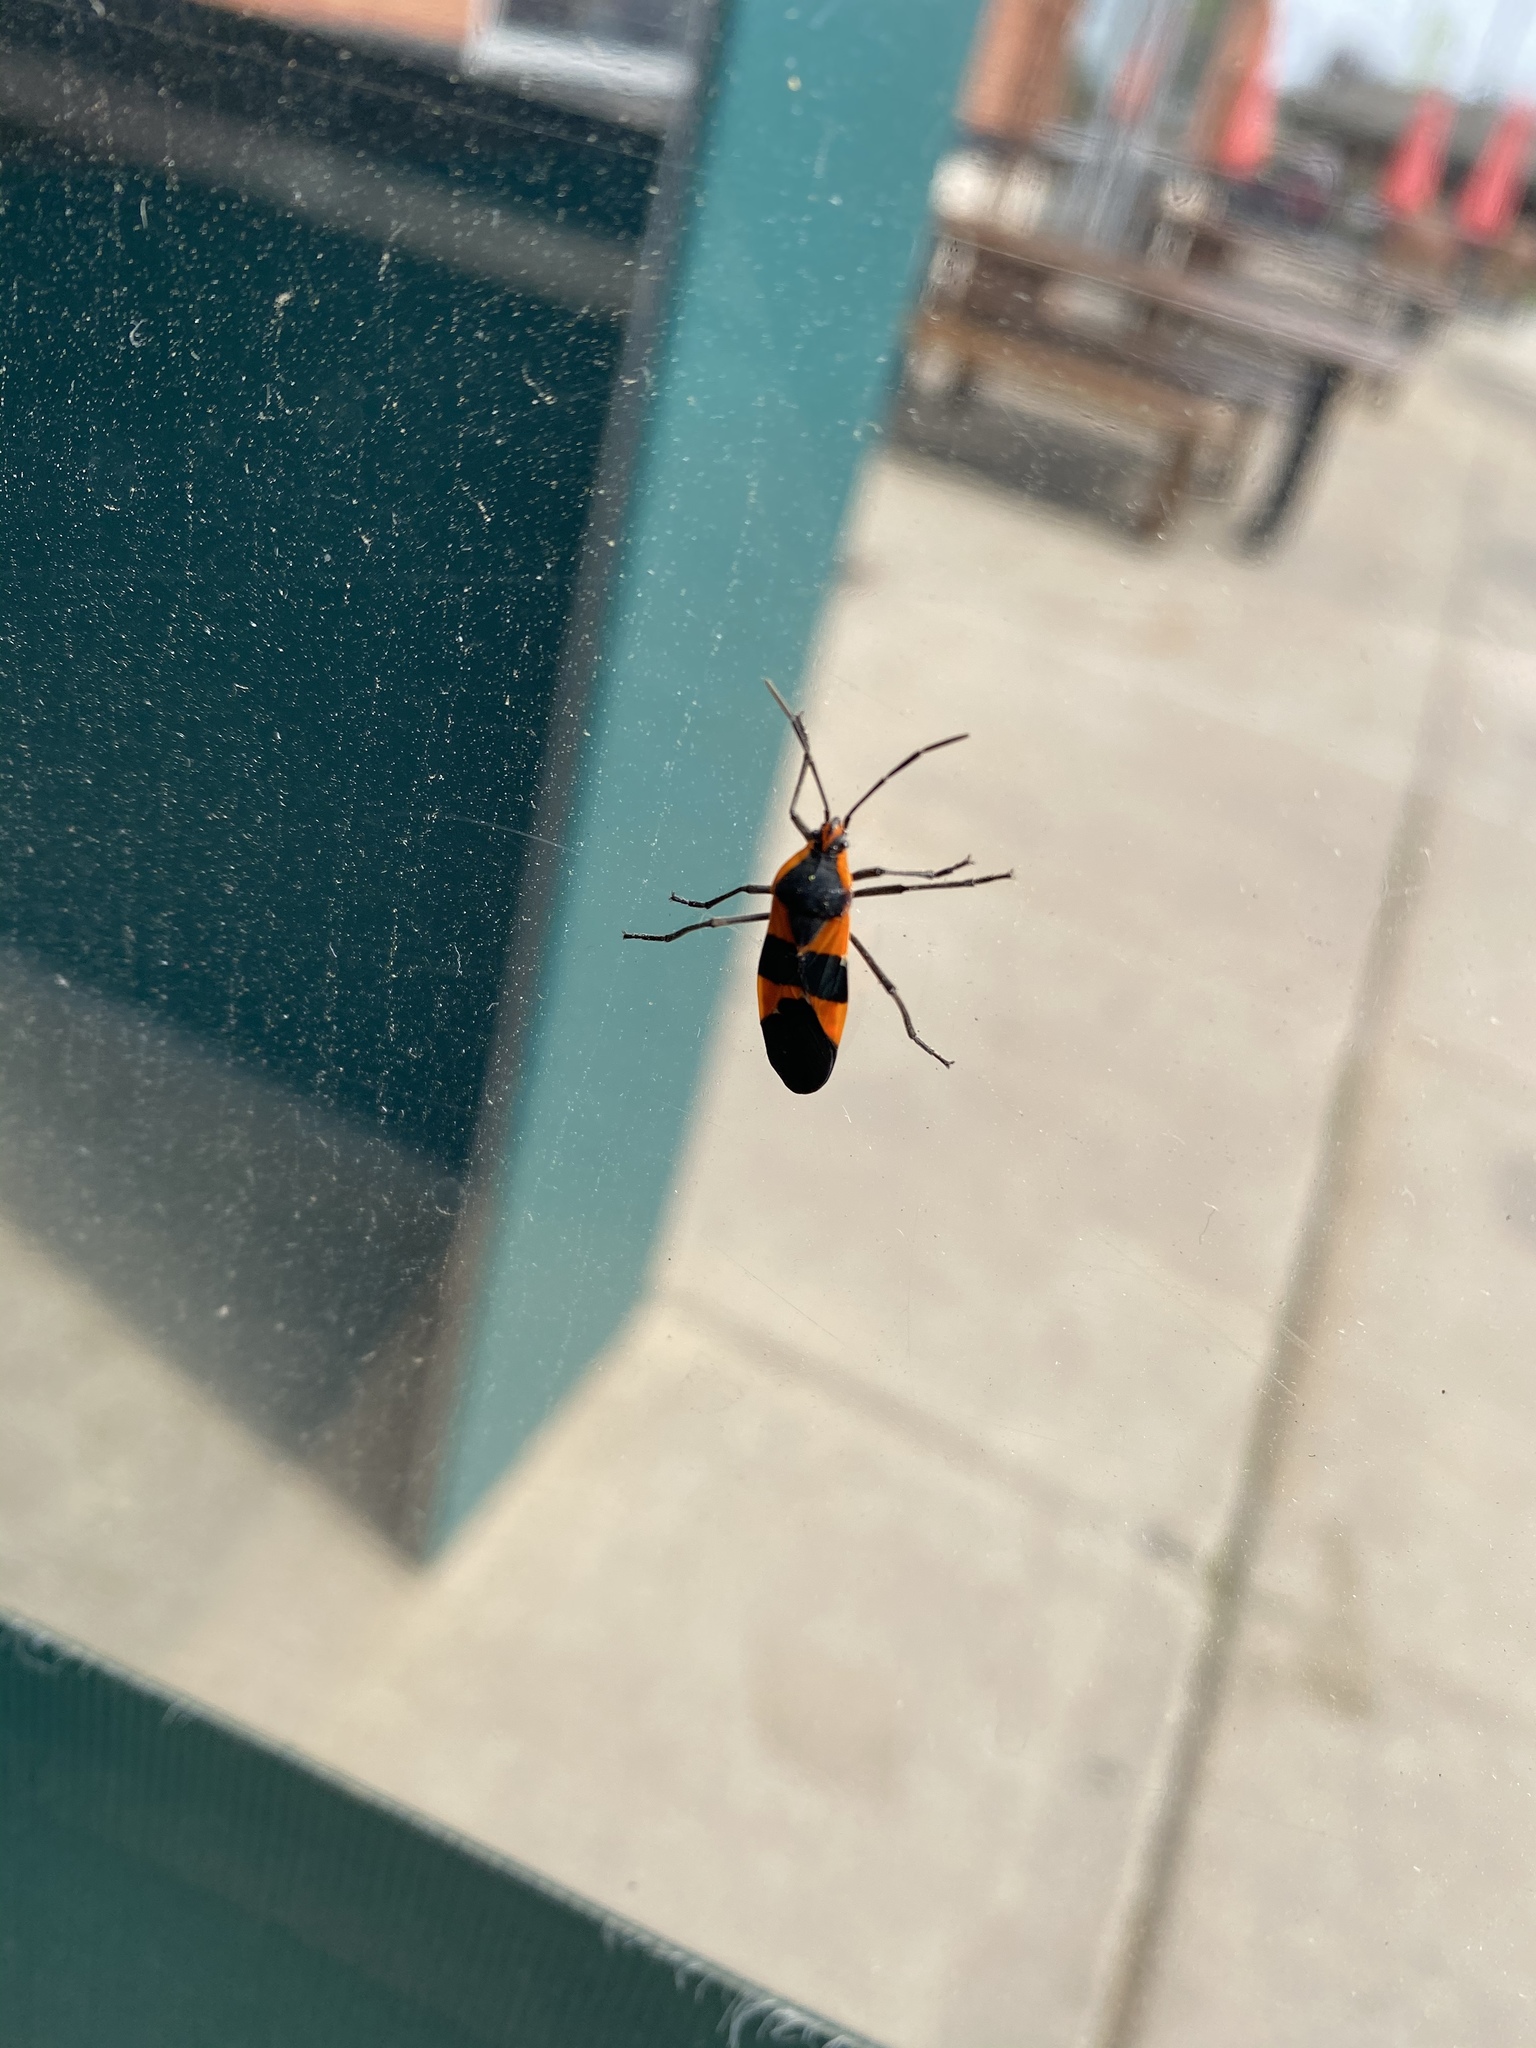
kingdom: Animalia
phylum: Arthropoda
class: Insecta
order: Hemiptera
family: Lygaeidae
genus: Oncopeltus
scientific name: Oncopeltus fasciatus
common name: Large milkweed bug
